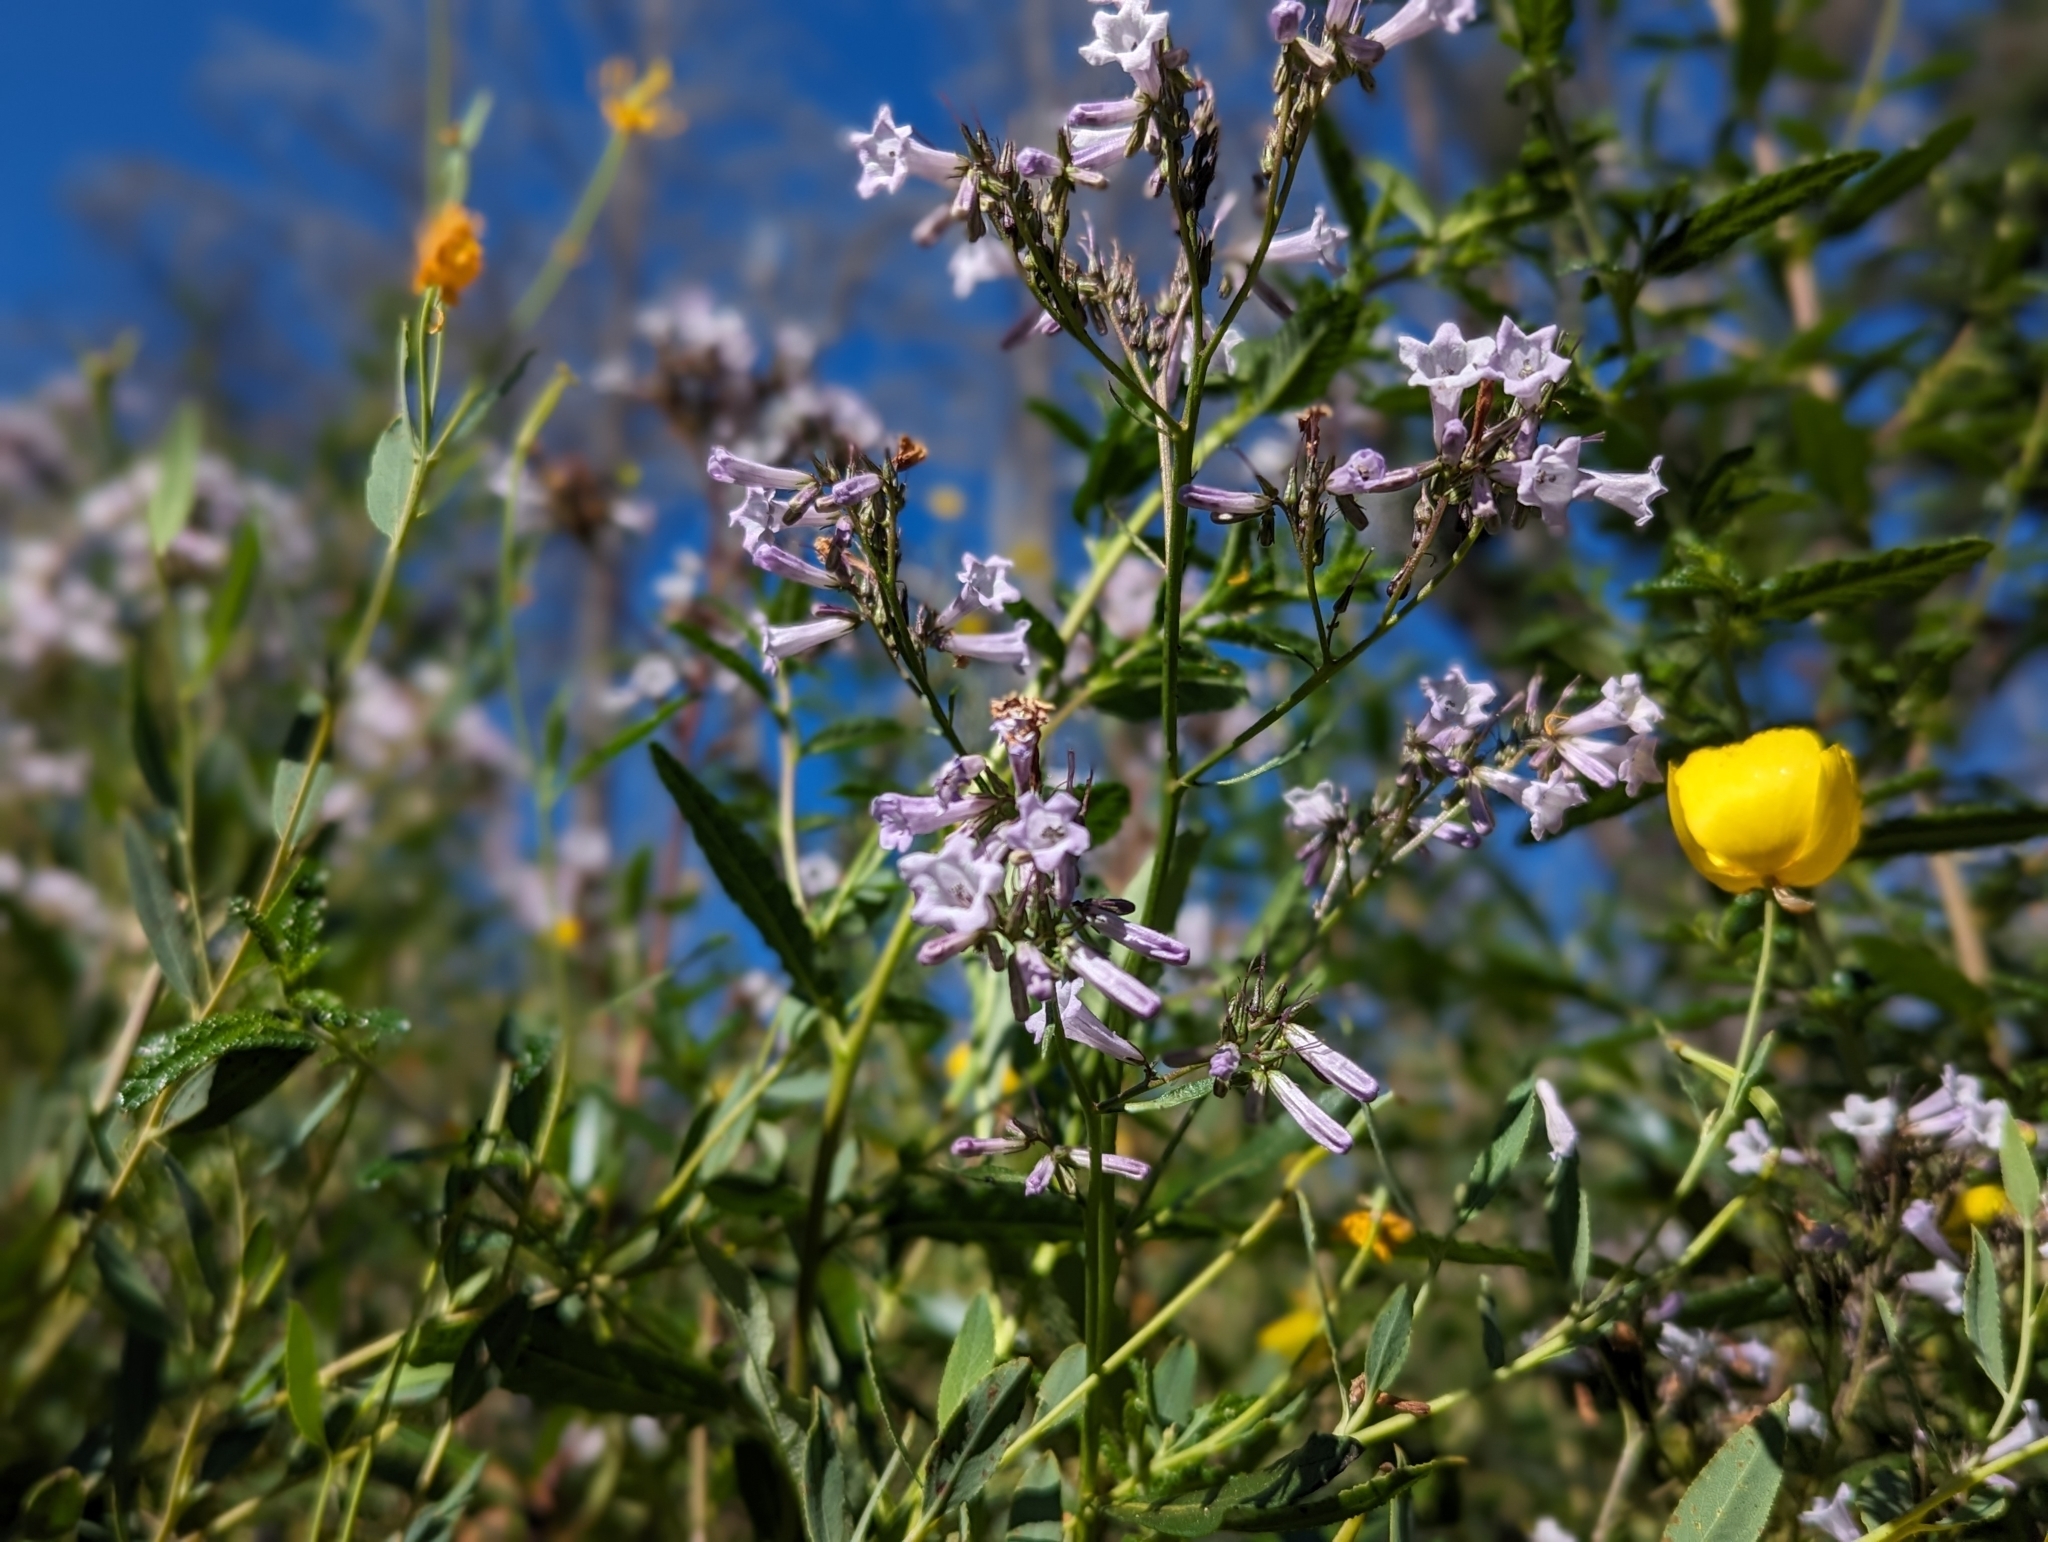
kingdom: Plantae
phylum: Tracheophyta
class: Magnoliopsida
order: Boraginales
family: Namaceae
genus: Eriodictyon
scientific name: Eriodictyon californicum
